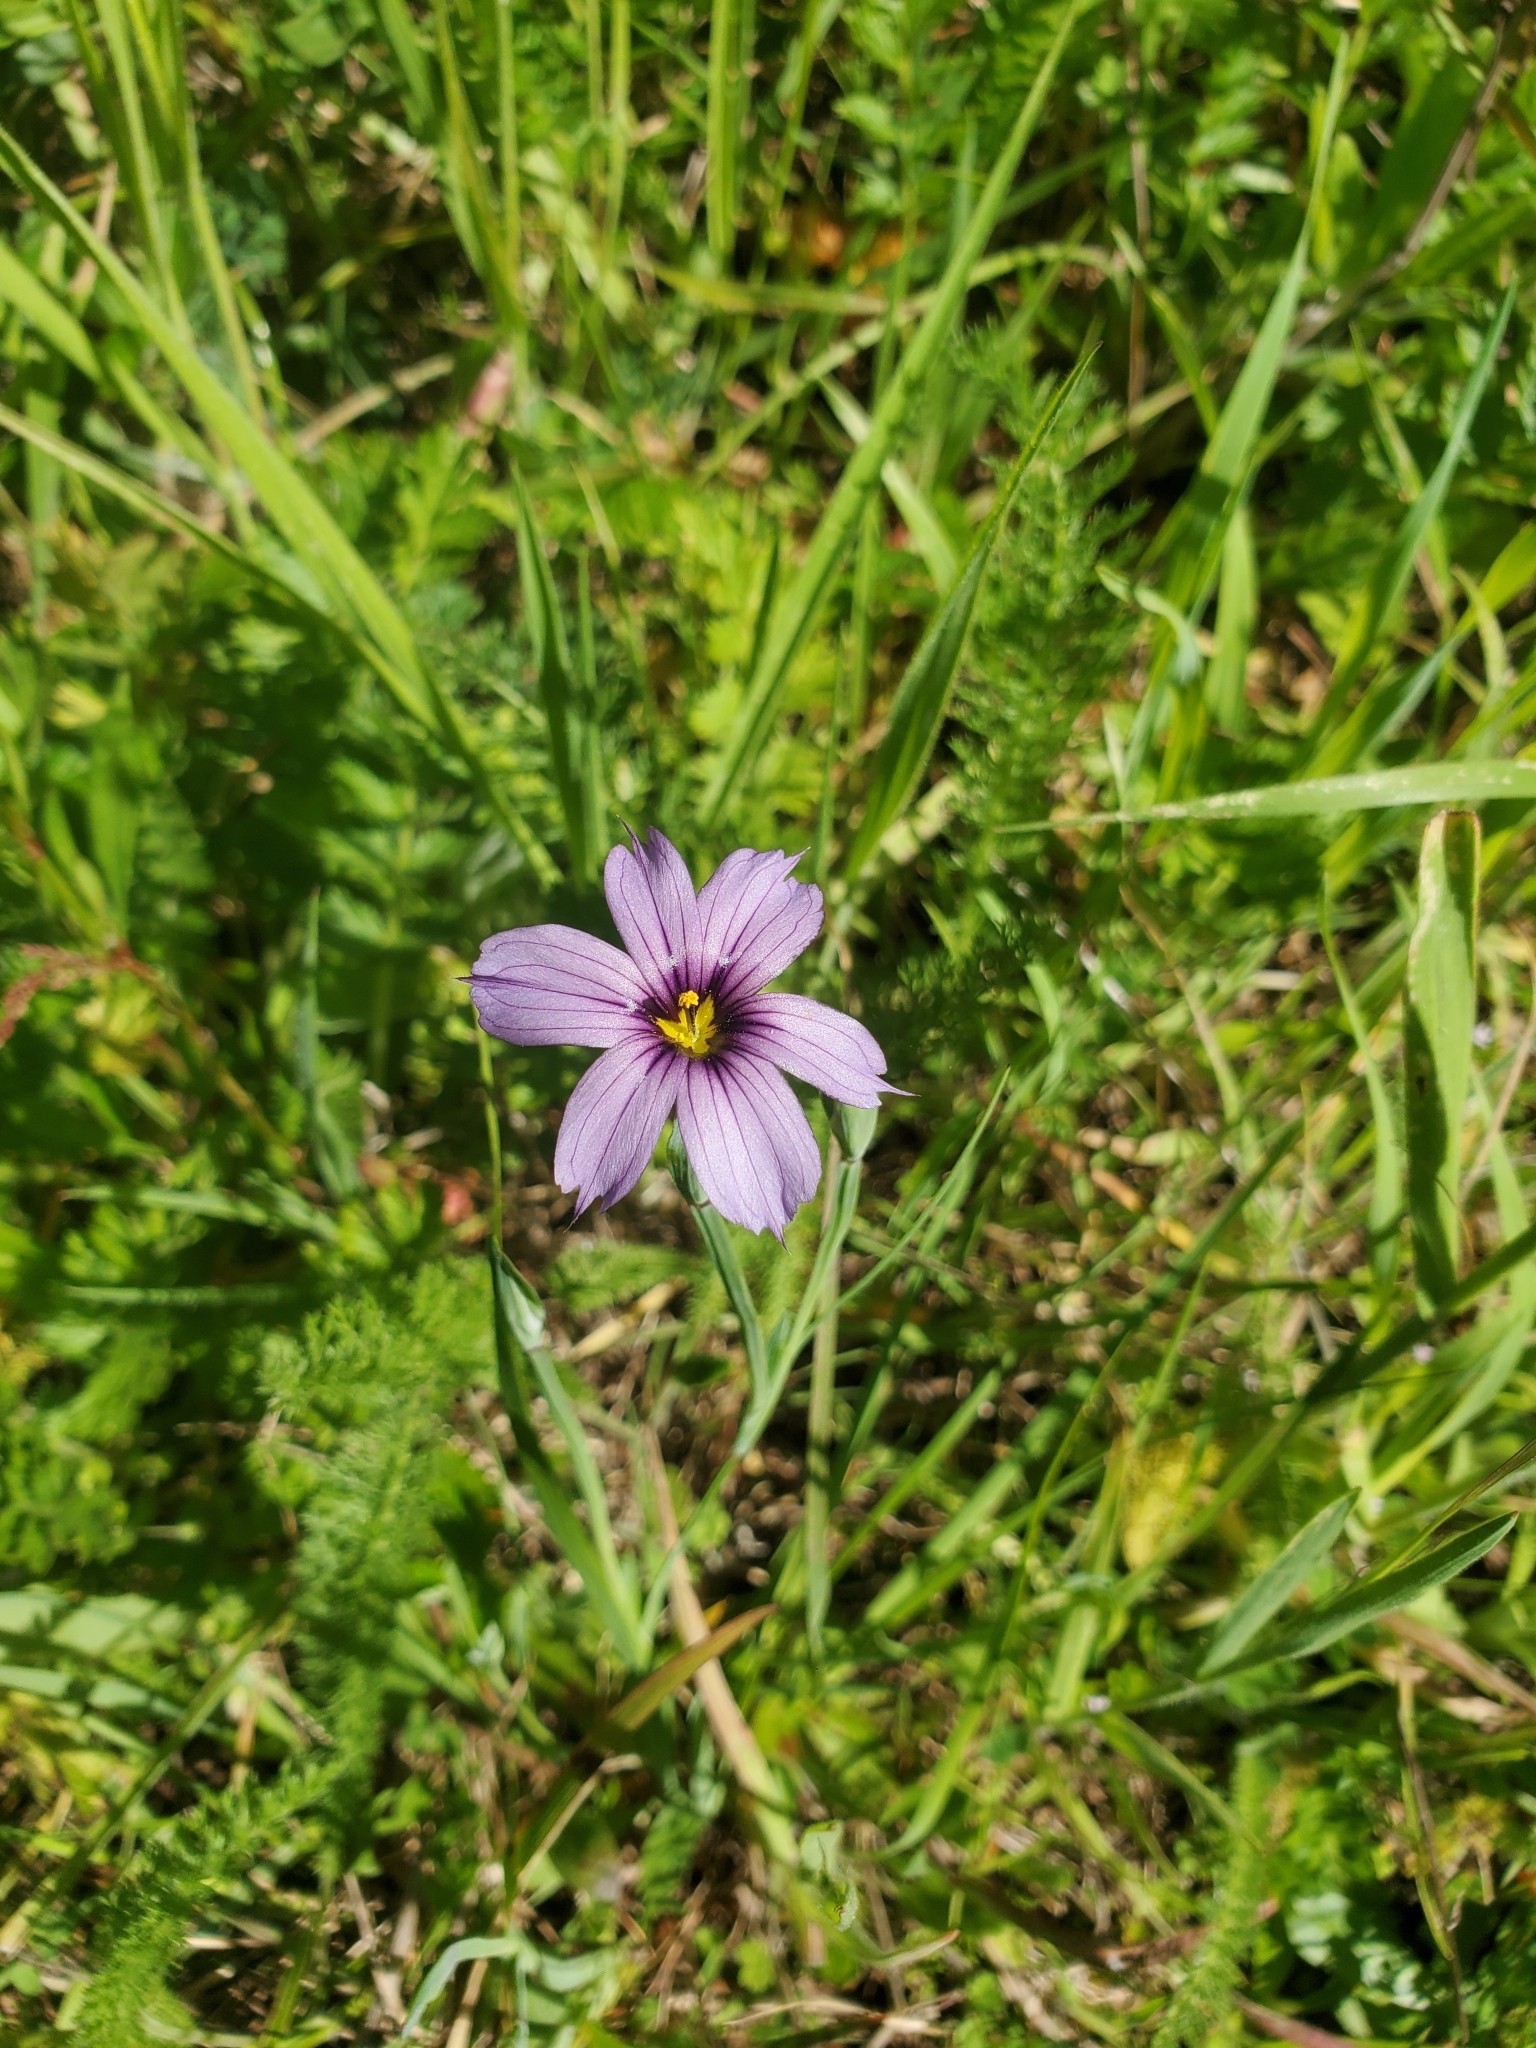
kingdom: Plantae
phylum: Tracheophyta
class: Liliopsida
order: Asparagales
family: Iridaceae
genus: Sisyrinchium
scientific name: Sisyrinchium bellum
